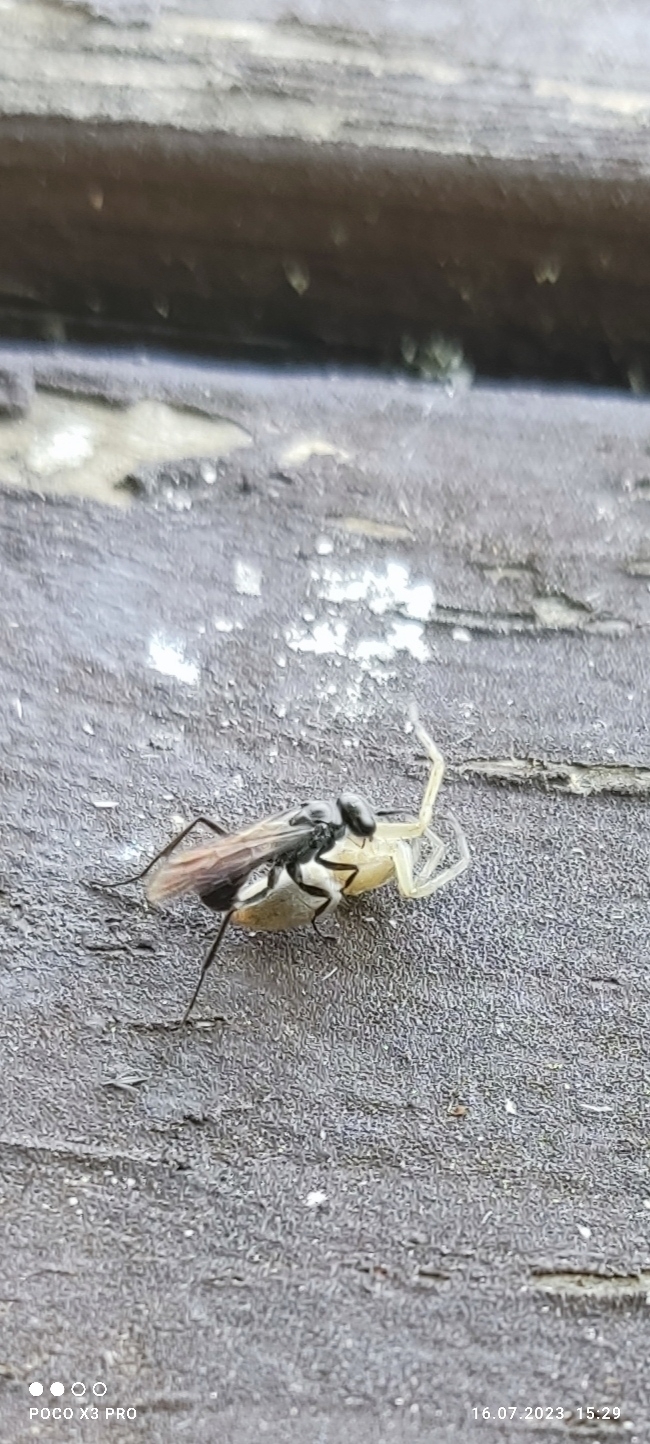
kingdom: Animalia
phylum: Arthropoda
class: Insecta
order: Hymenoptera
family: Pompilidae
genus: Auplopus
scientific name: Auplopus carbonarius
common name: Spider wasp
